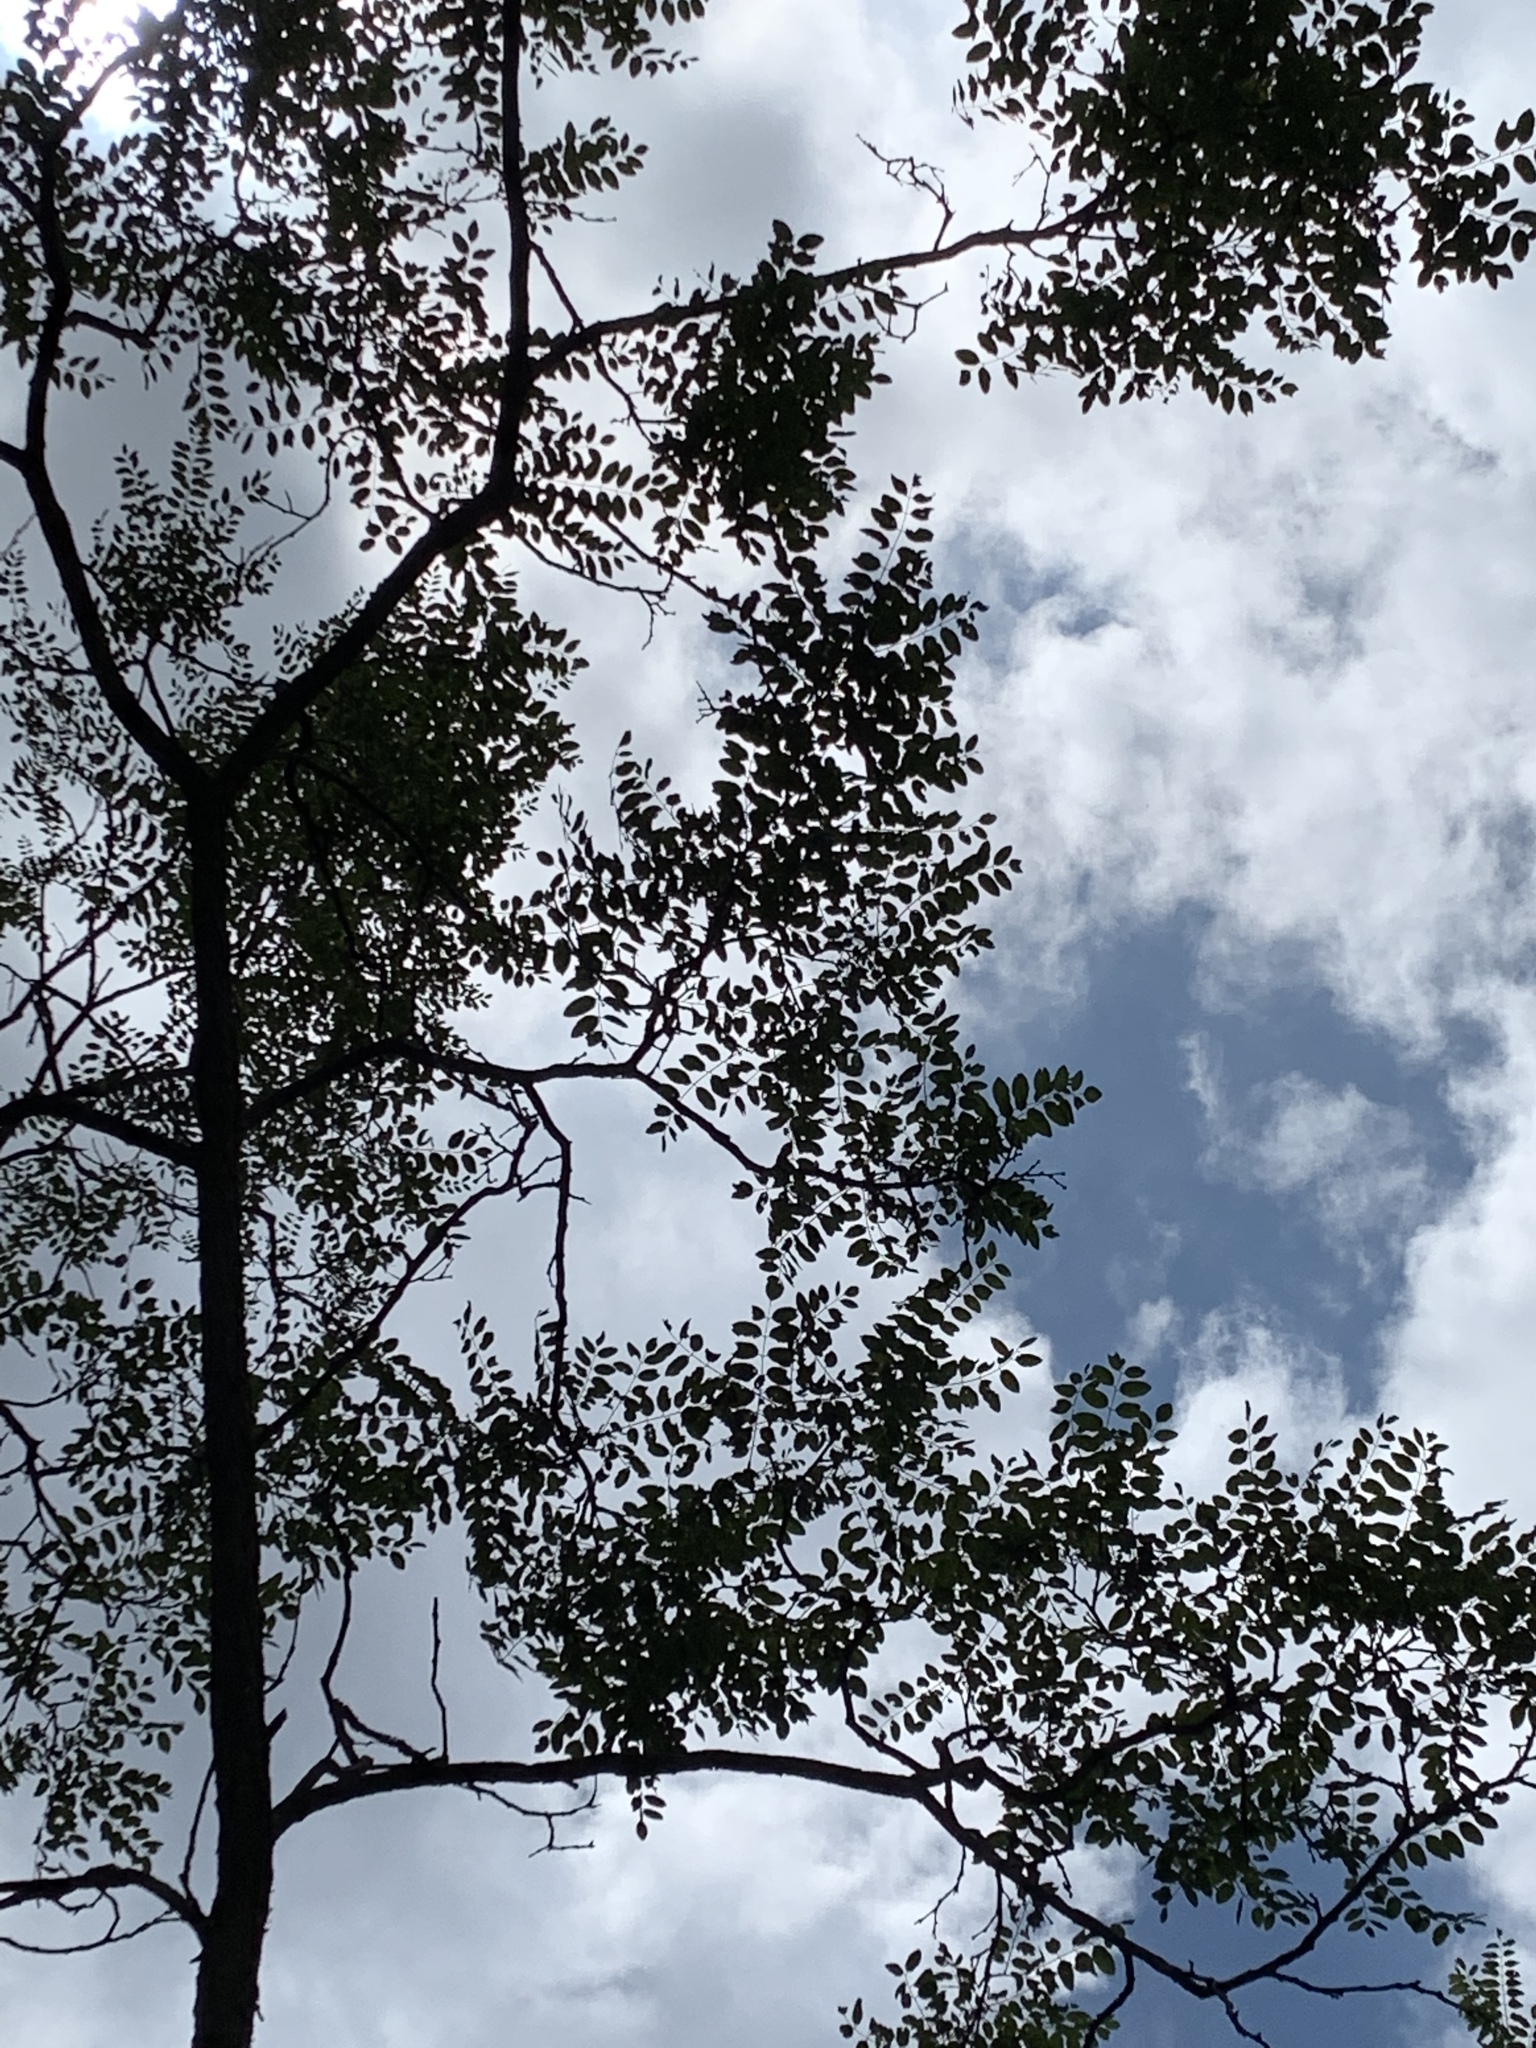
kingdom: Plantae
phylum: Tracheophyta
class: Magnoliopsida
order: Fabales
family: Fabaceae
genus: Robinia
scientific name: Robinia neomexicana
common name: New mexico locust
